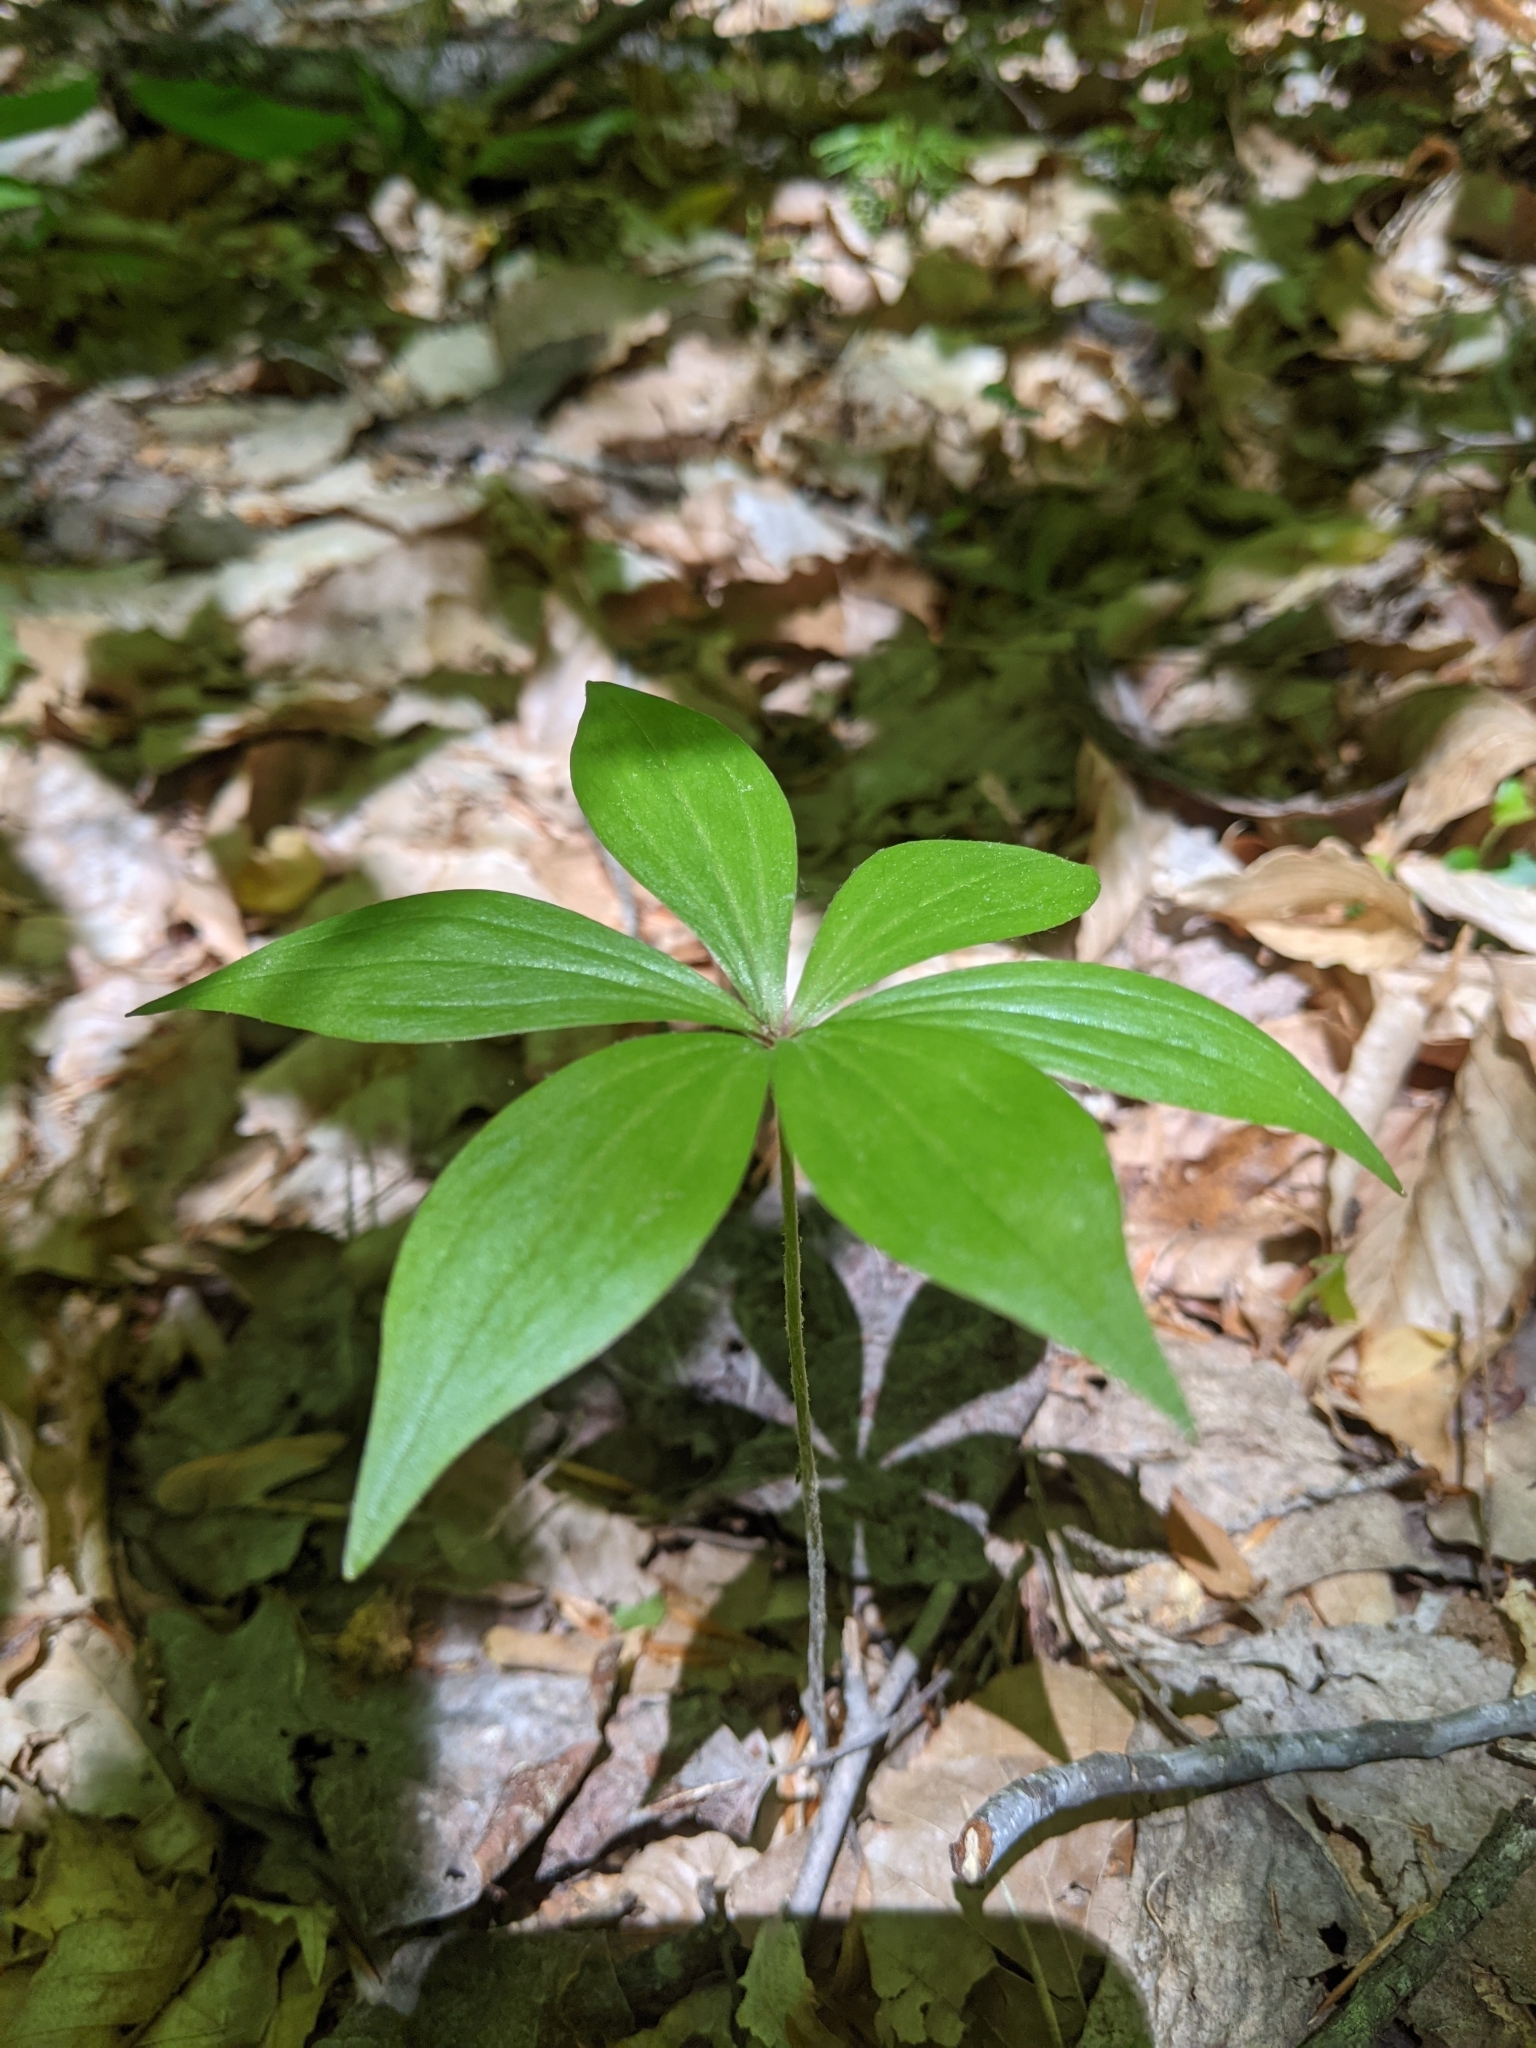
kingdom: Plantae
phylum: Tracheophyta
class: Liliopsida
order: Liliales
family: Liliaceae
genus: Medeola
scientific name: Medeola virginiana
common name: Indian cucumber-root
